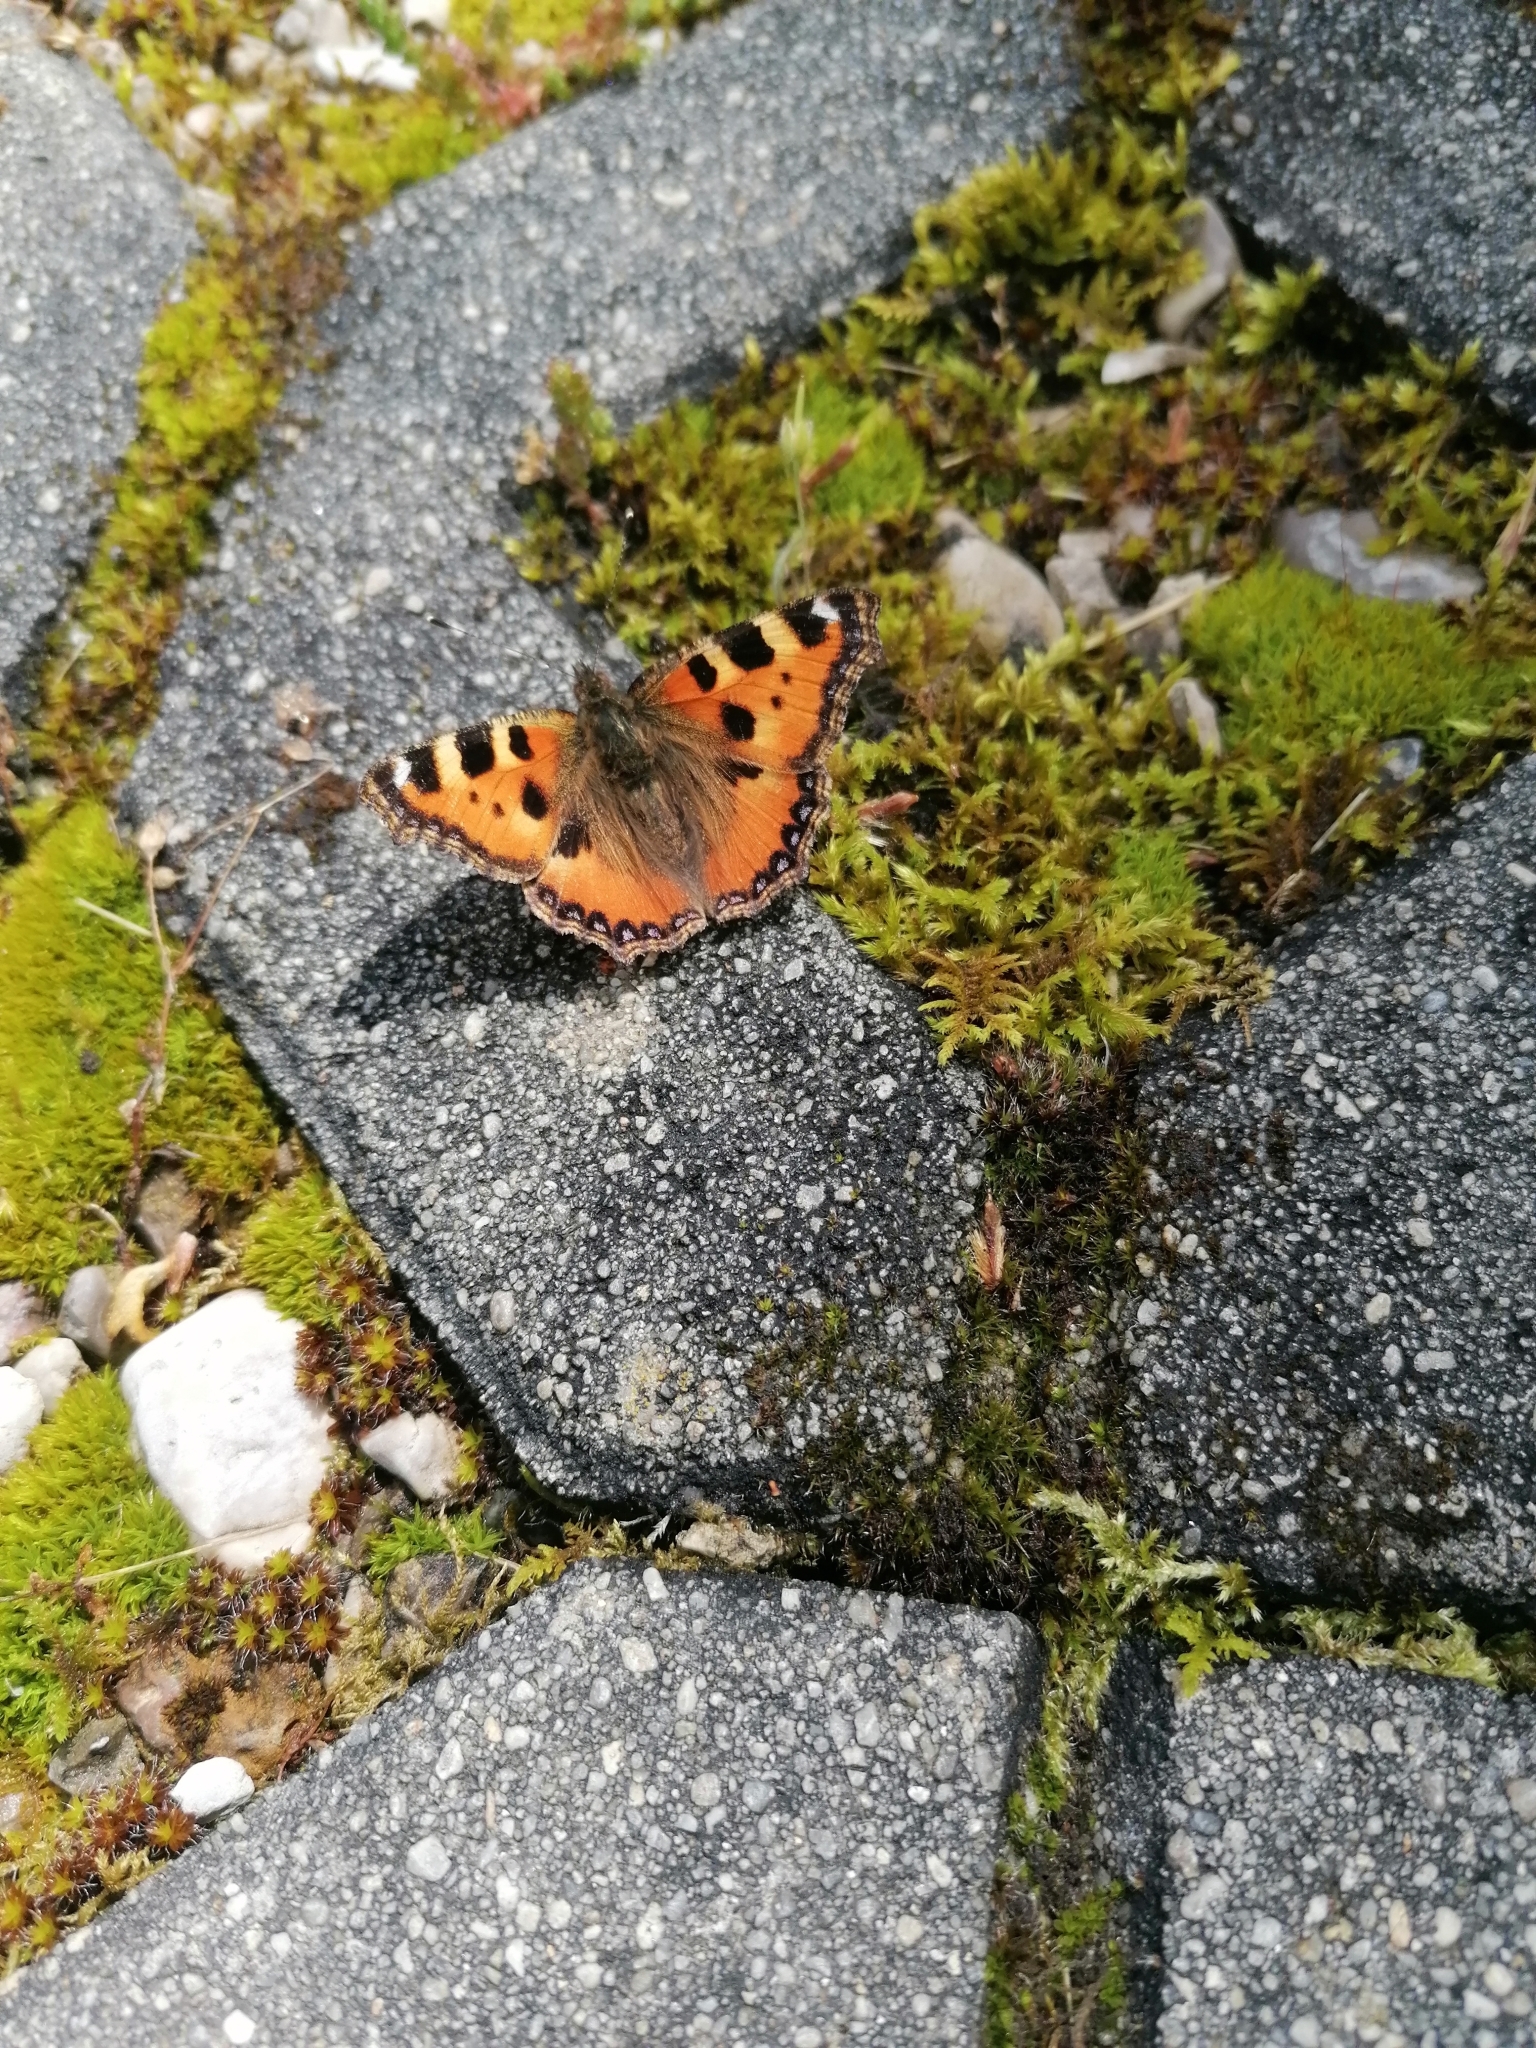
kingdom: Animalia
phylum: Arthropoda
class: Insecta
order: Lepidoptera
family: Nymphalidae
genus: Aglais
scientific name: Aglais urticae
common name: Small tortoiseshell
